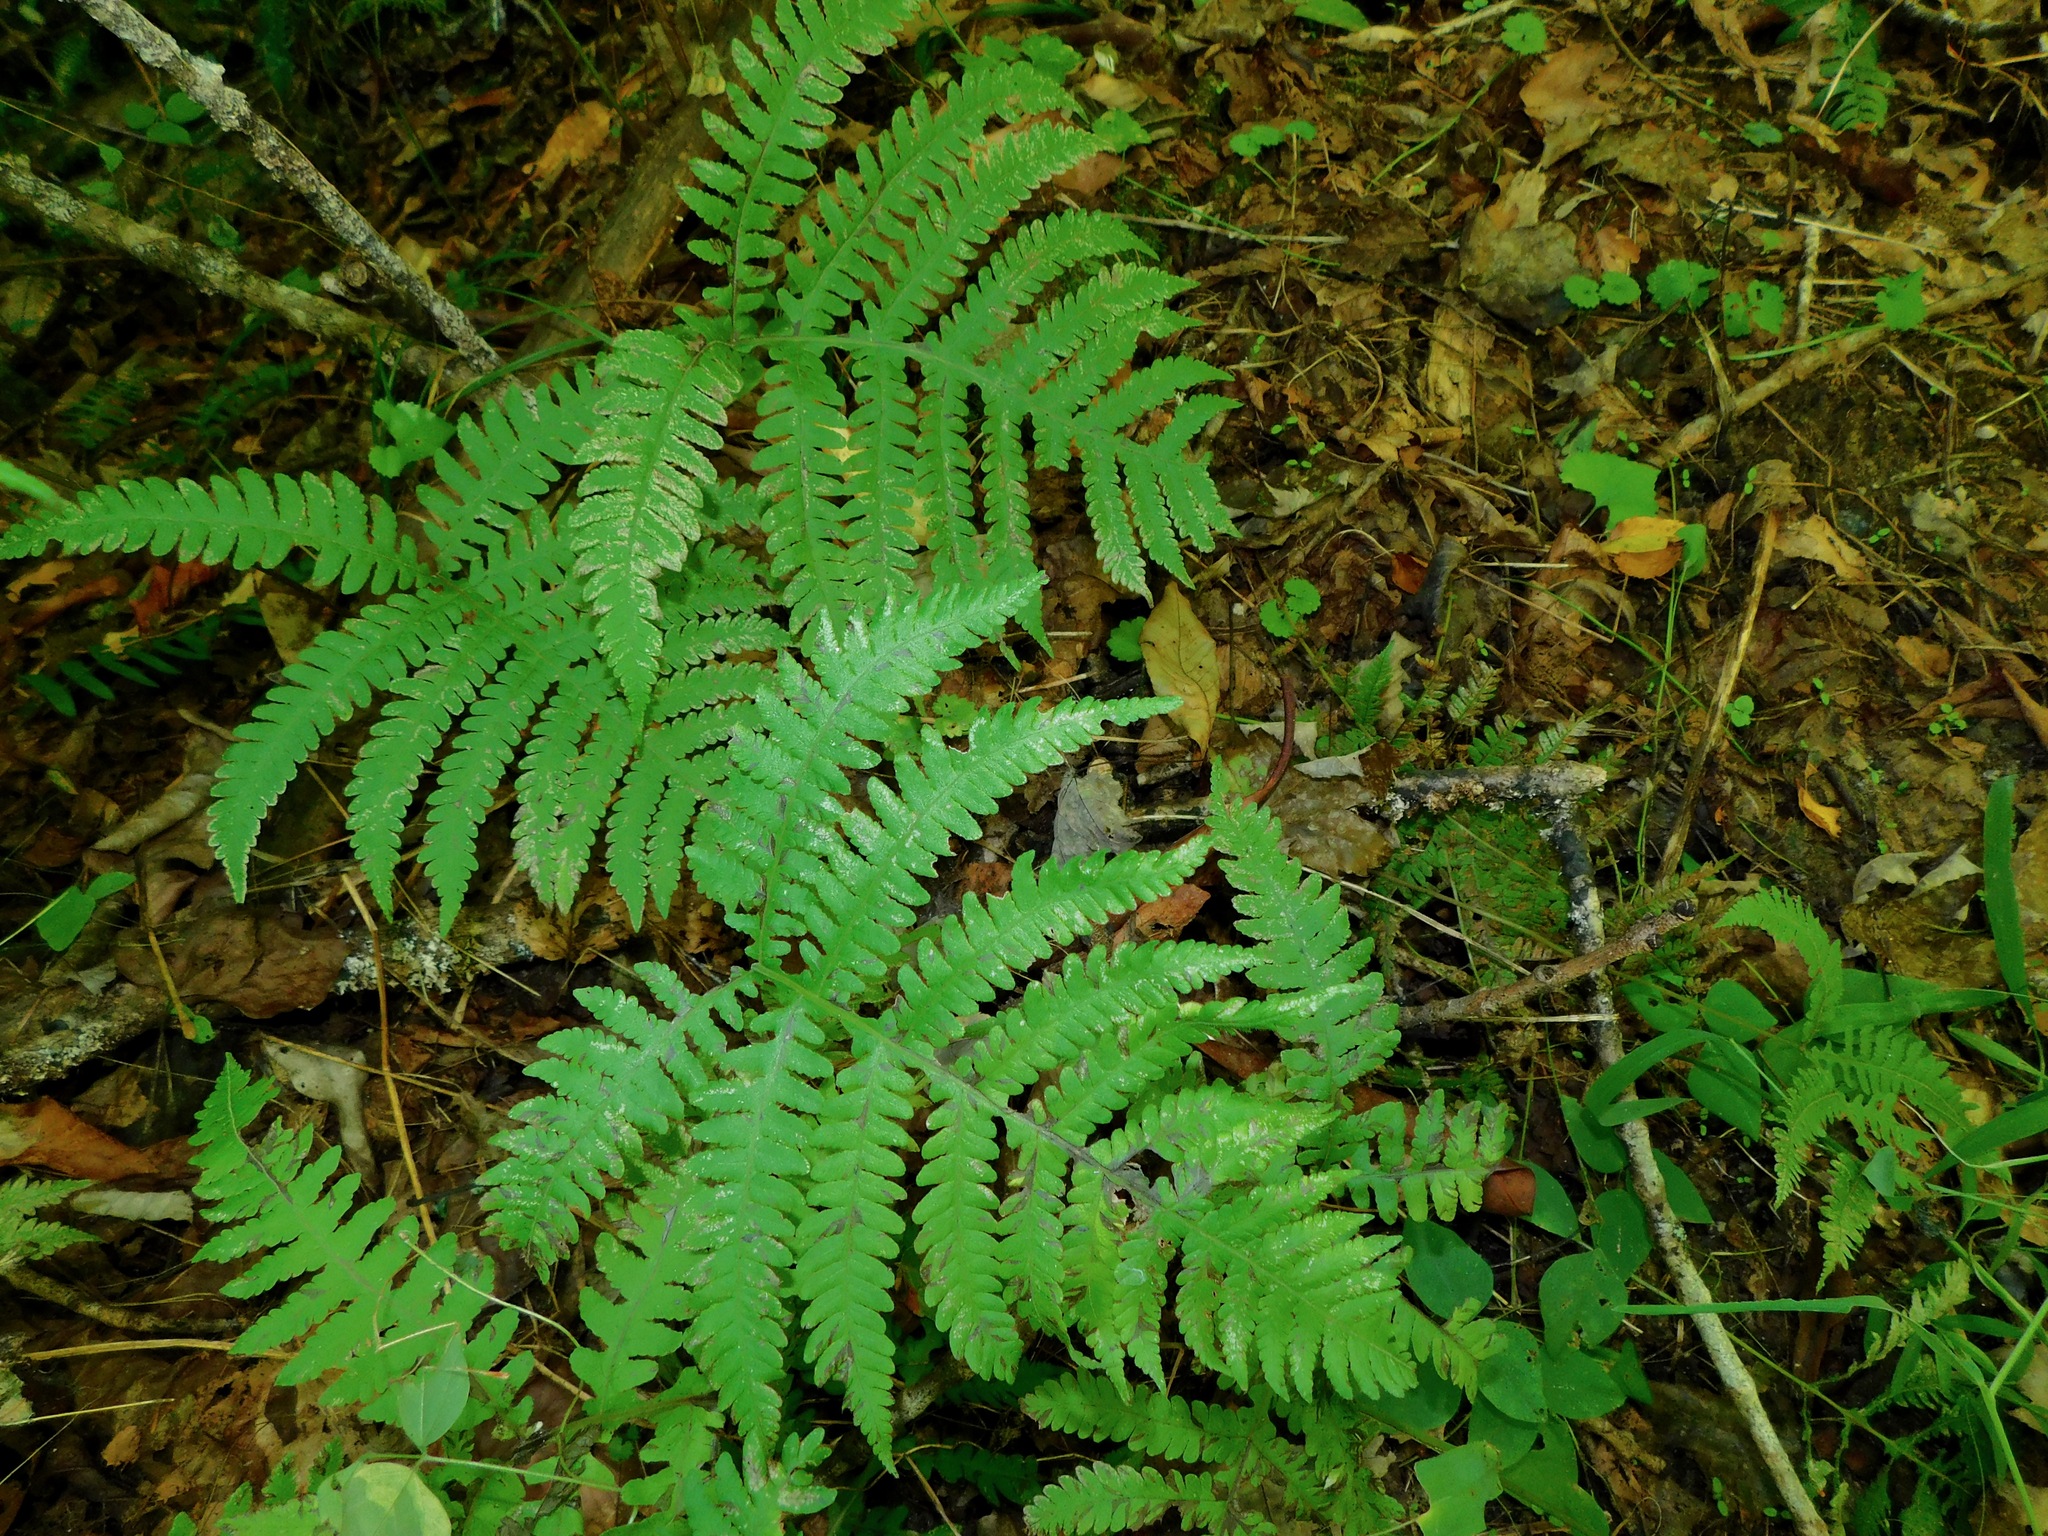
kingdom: Plantae
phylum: Tracheophyta
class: Polypodiopsida
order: Polypodiales
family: Thelypteridaceae
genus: Phegopteris
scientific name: Phegopteris hexagonoptera
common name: Broad beech fern
